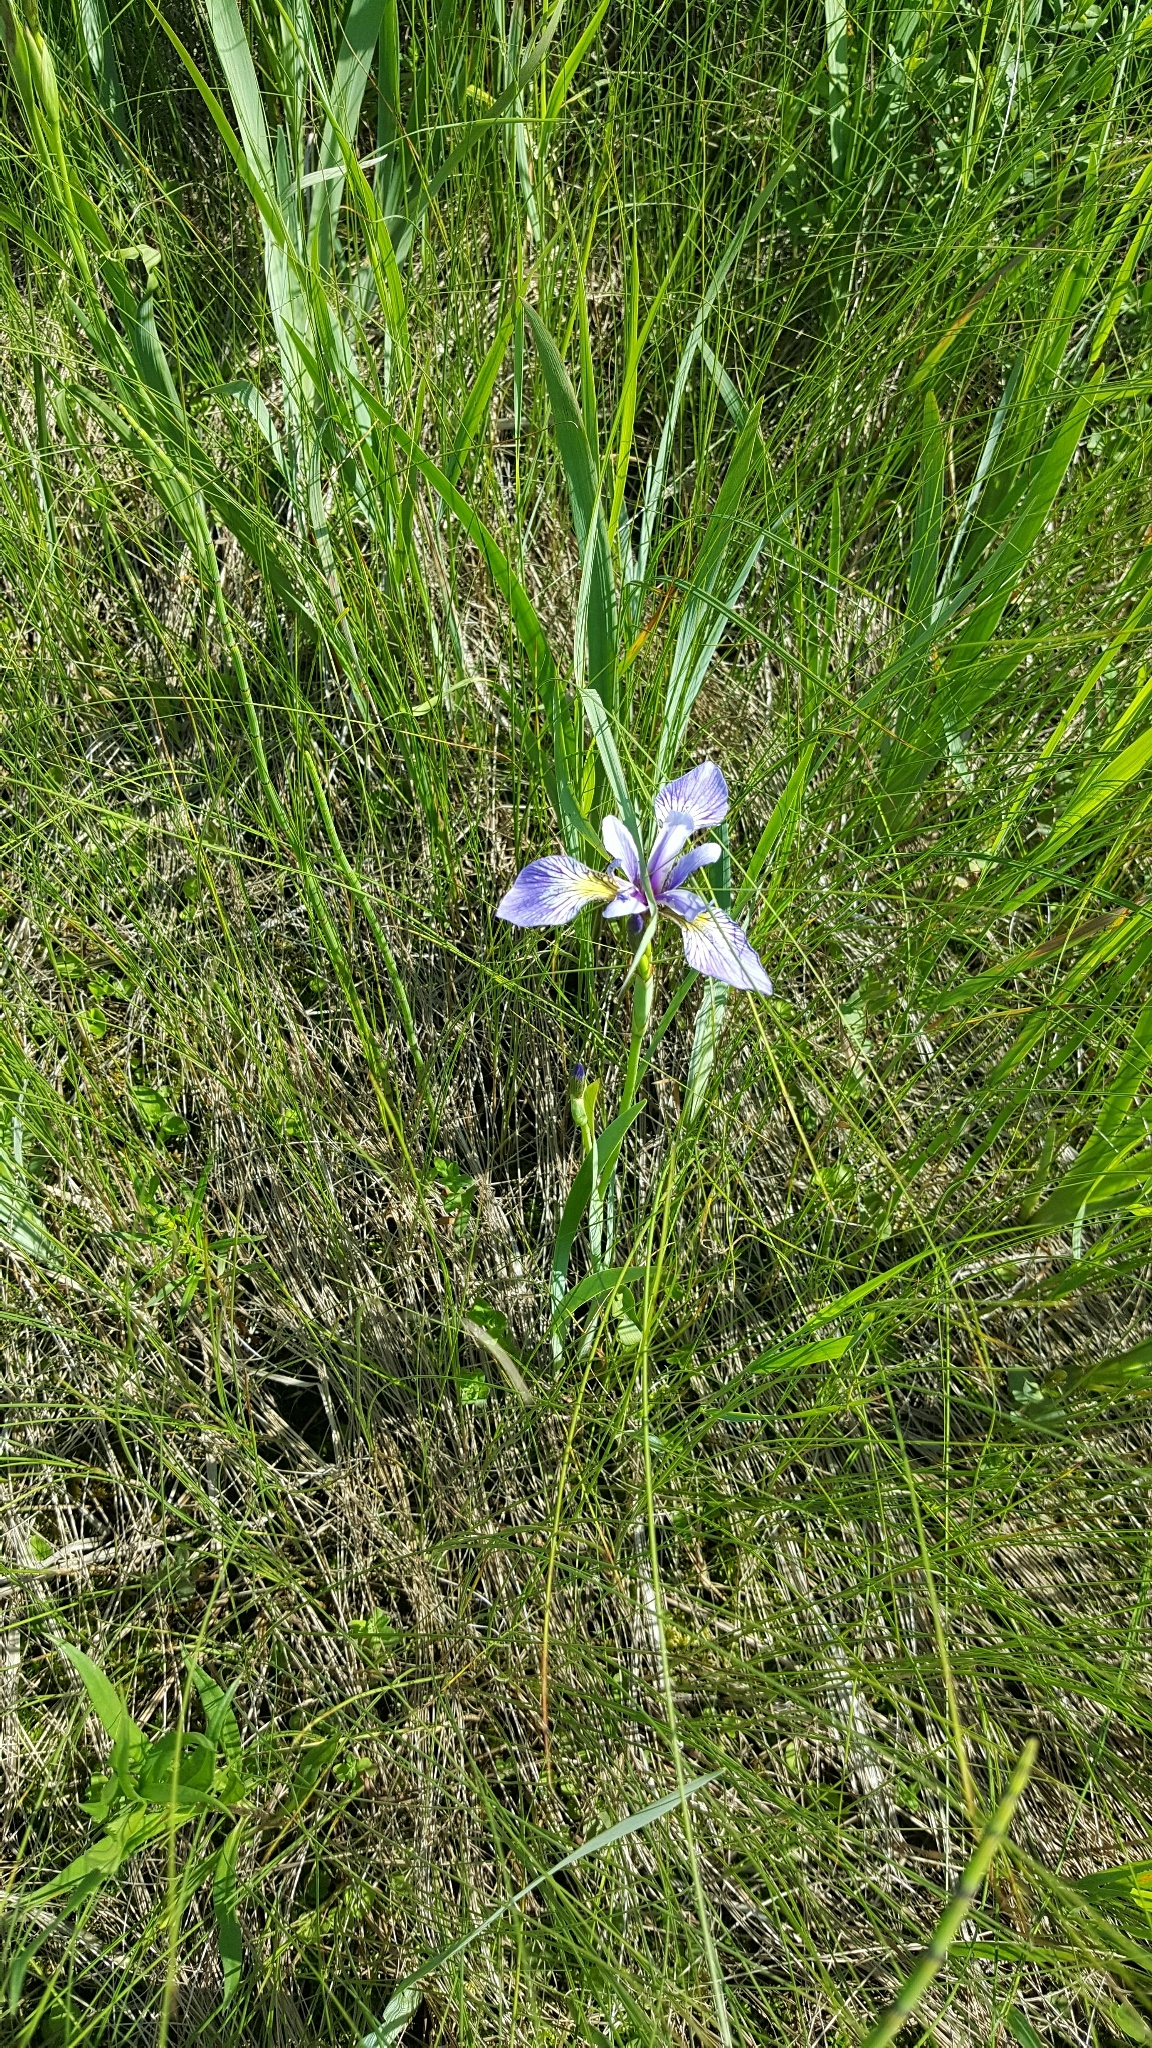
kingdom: Plantae
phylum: Tracheophyta
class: Liliopsida
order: Asparagales
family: Iridaceae
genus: Iris
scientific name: Iris versicolor
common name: Purple iris
